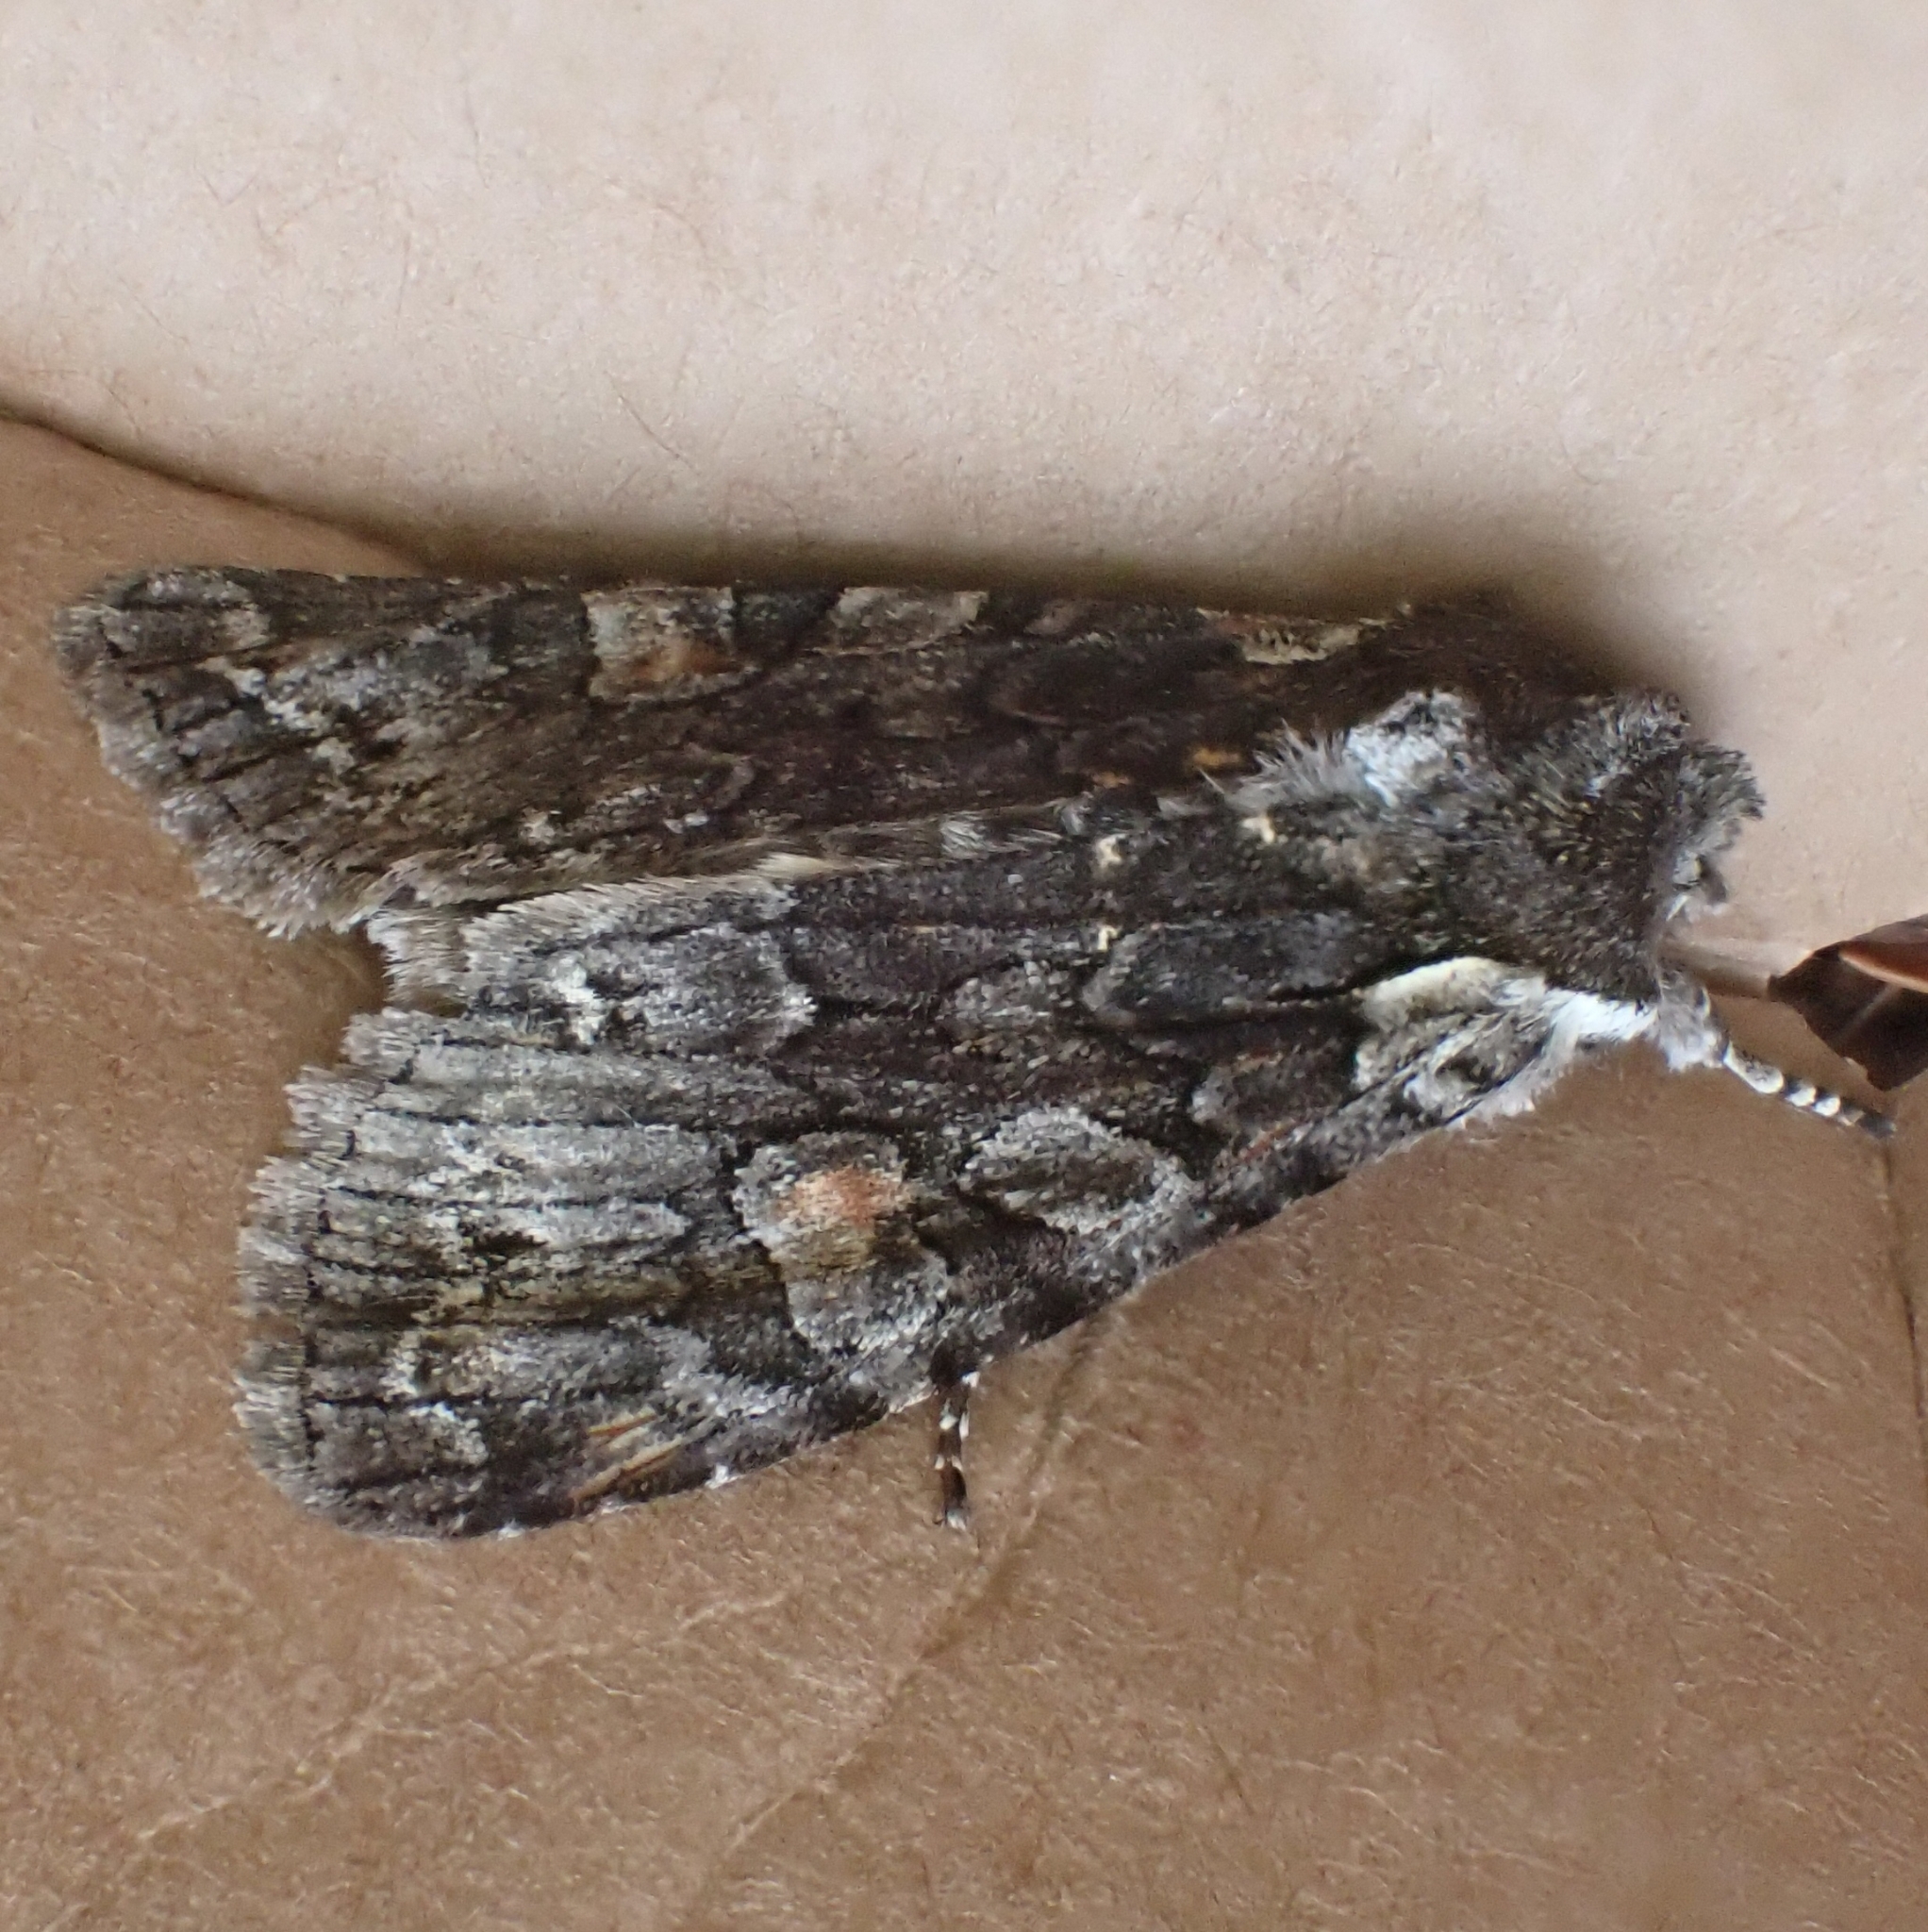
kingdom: Animalia
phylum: Arthropoda
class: Insecta
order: Lepidoptera
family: Noctuidae
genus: Lithophane
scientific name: Lithophane consocia
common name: Softly's shoulder-knot
